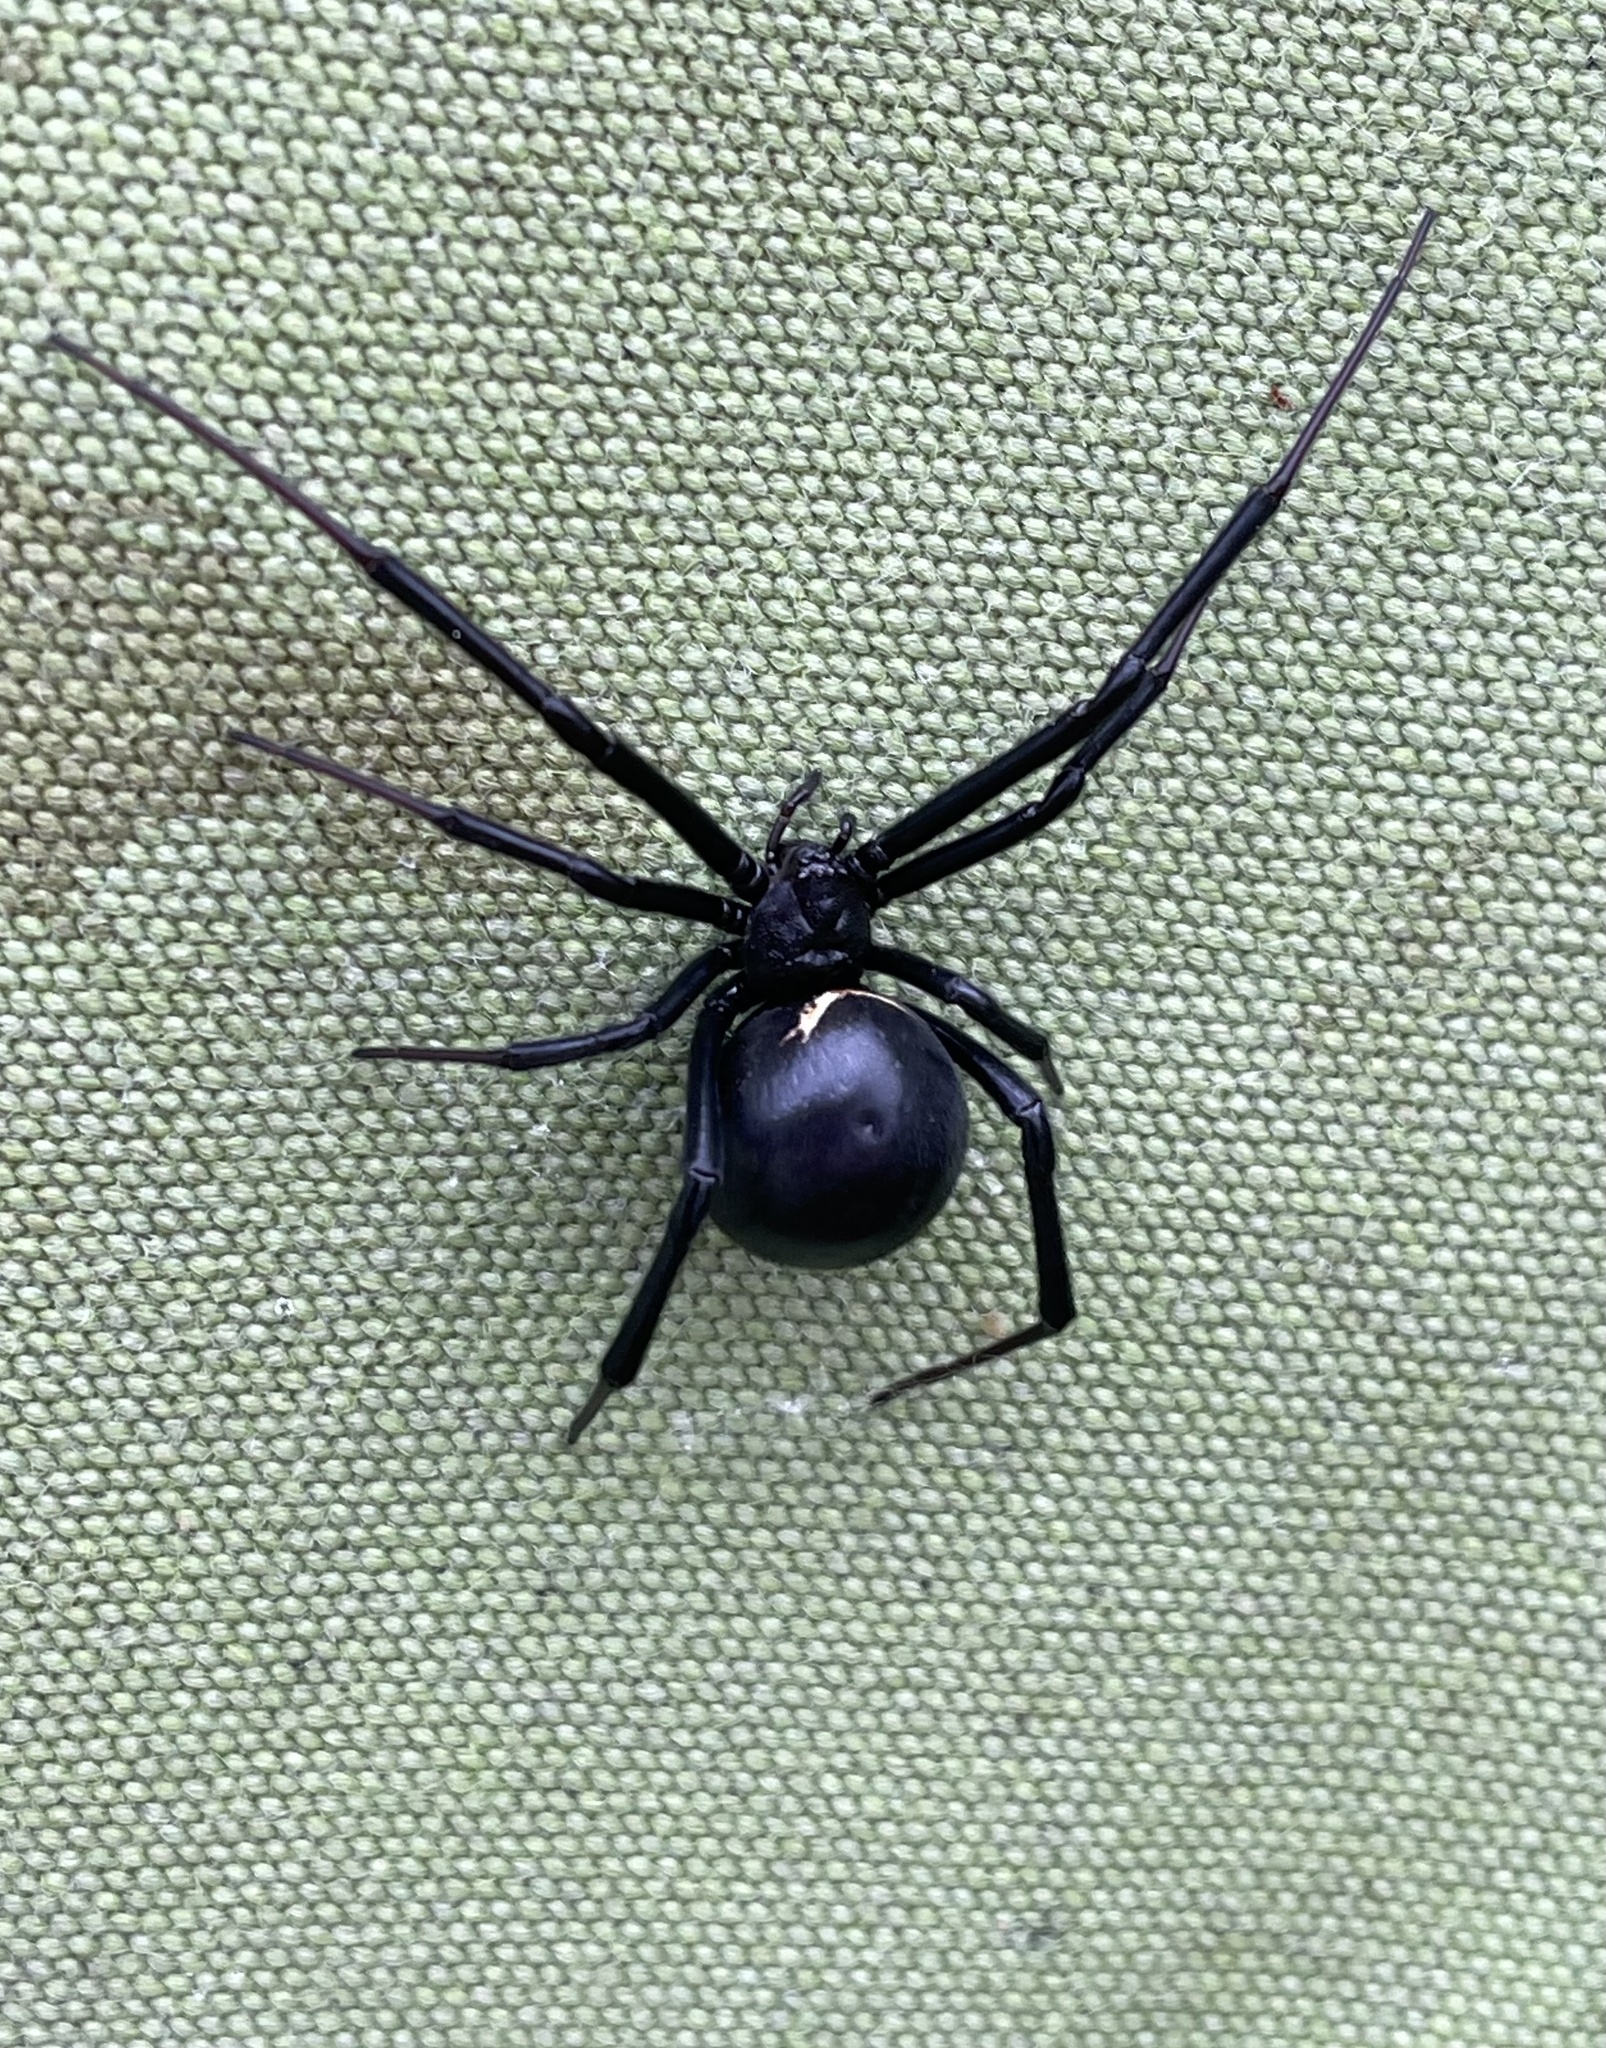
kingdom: Animalia
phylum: Arthropoda
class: Arachnida
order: Araneae
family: Theridiidae
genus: Latrodectus
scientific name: Latrodectus hesperus
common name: Western black widow
